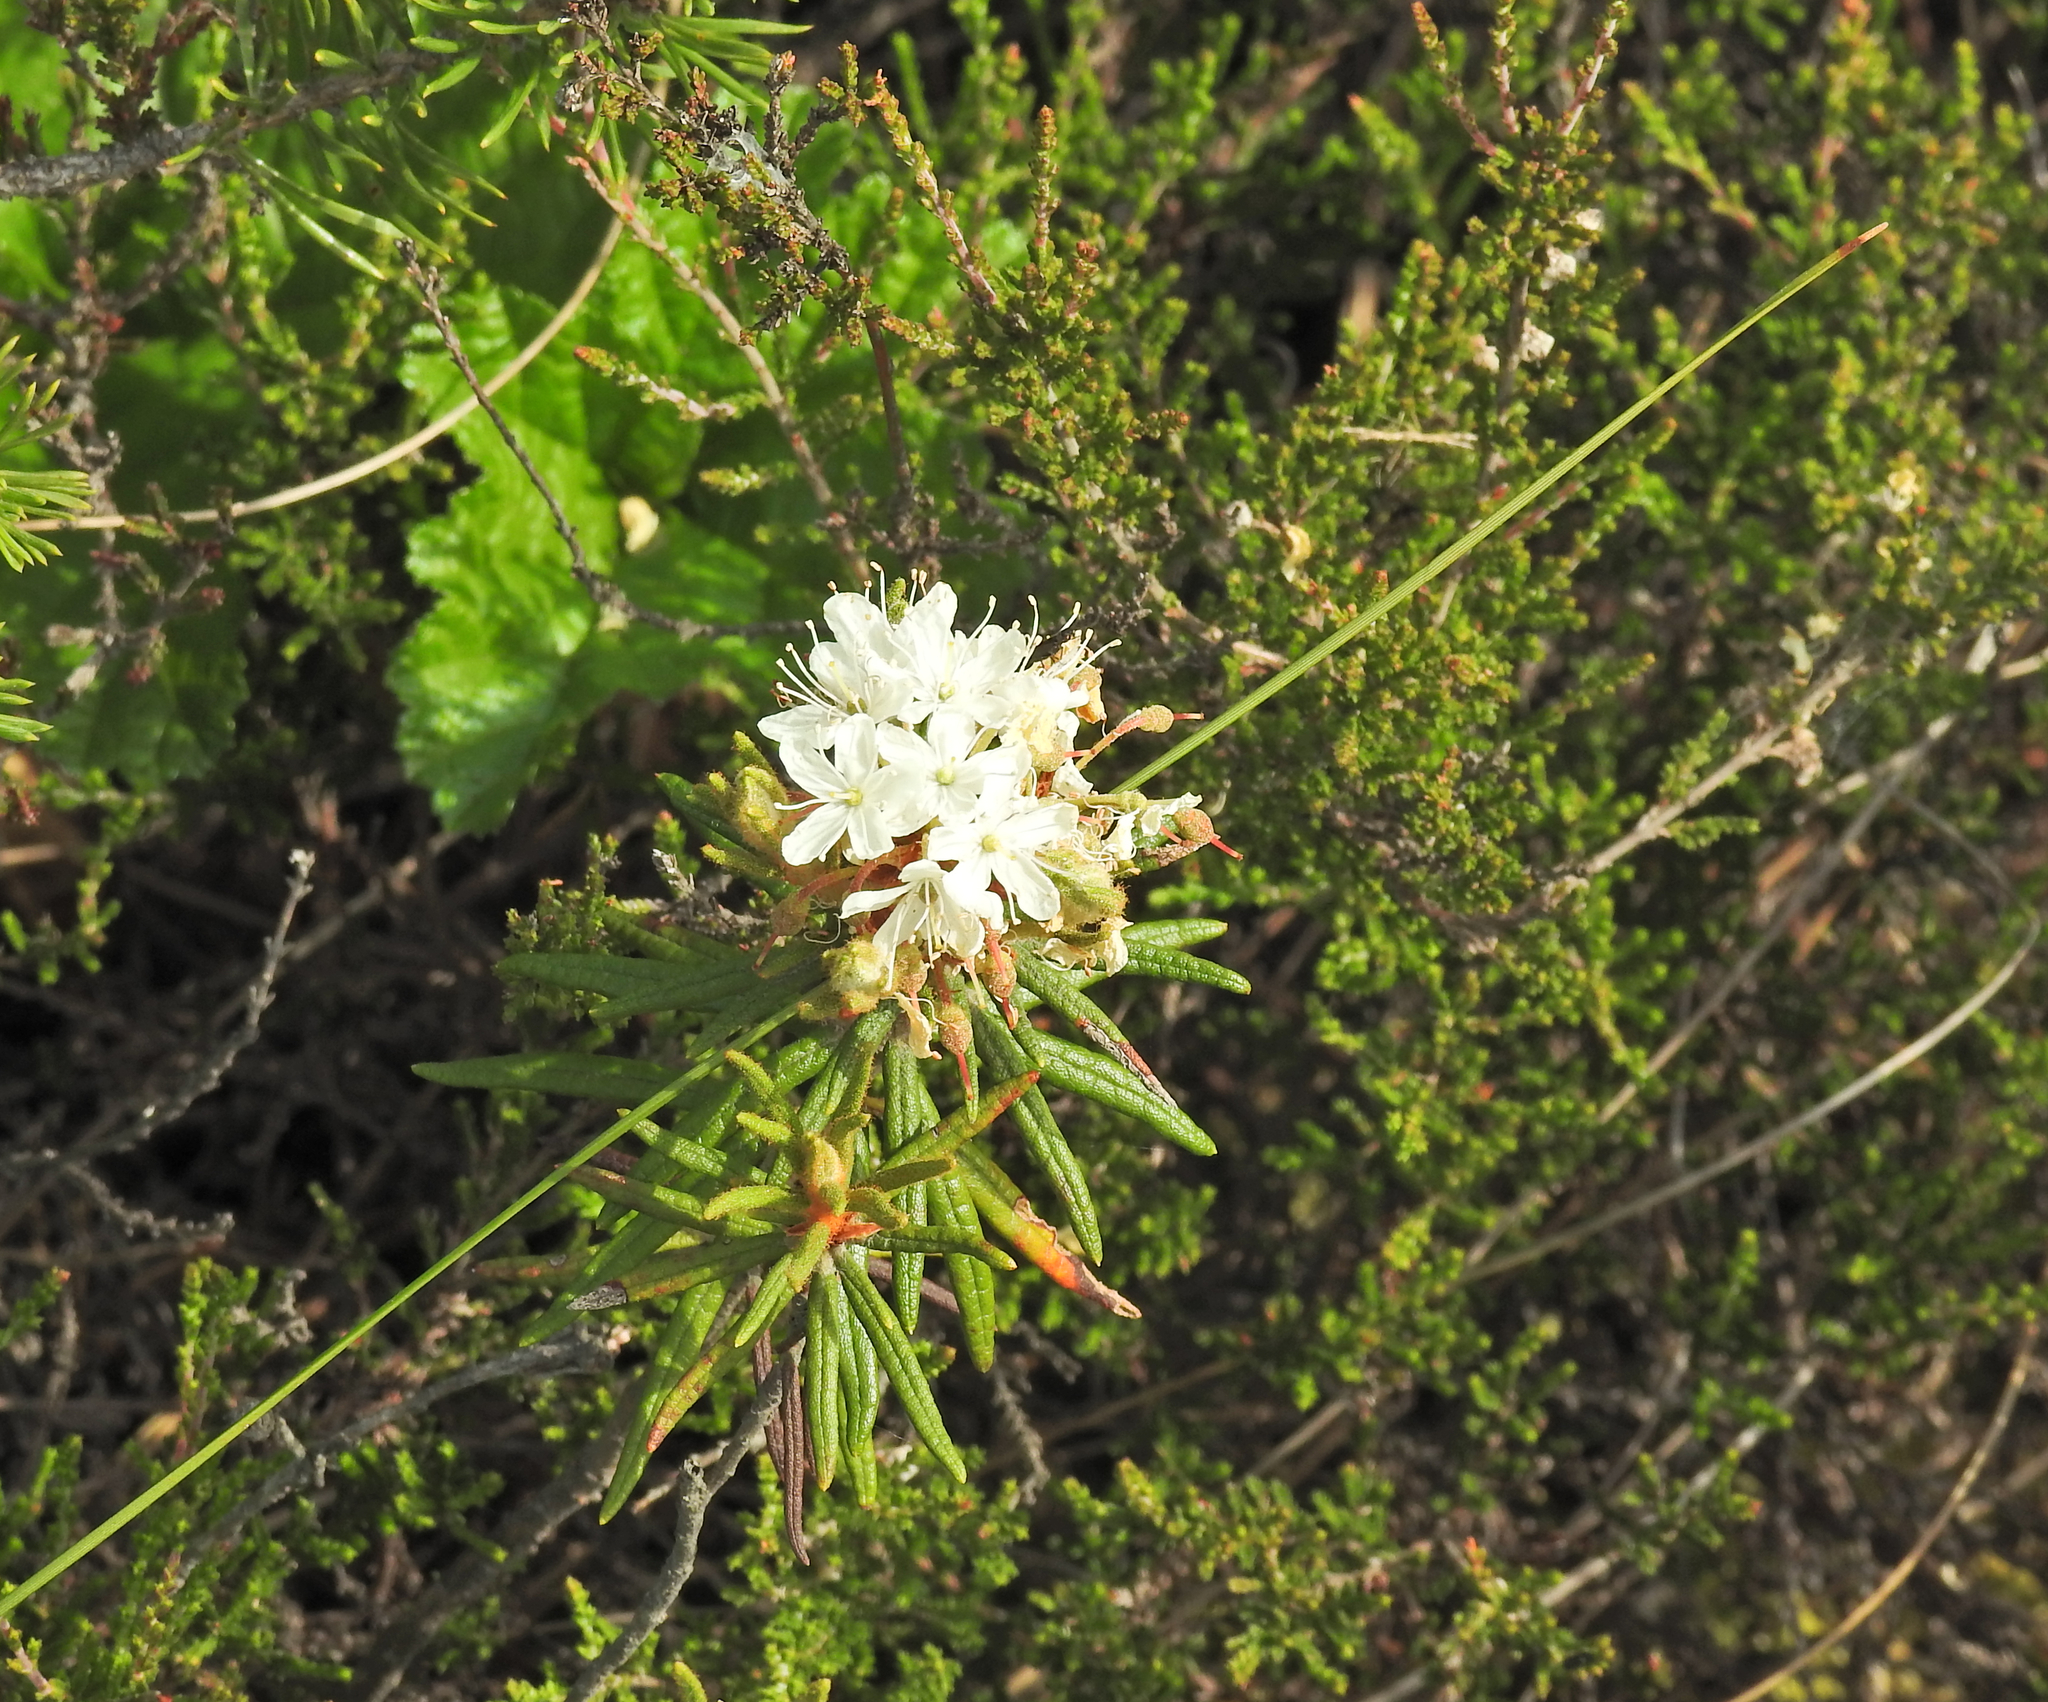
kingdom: Plantae
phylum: Tracheophyta
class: Magnoliopsida
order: Ericales
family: Ericaceae
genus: Rhododendron
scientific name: Rhododendron tomentosum
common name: Marsh labrador tea
